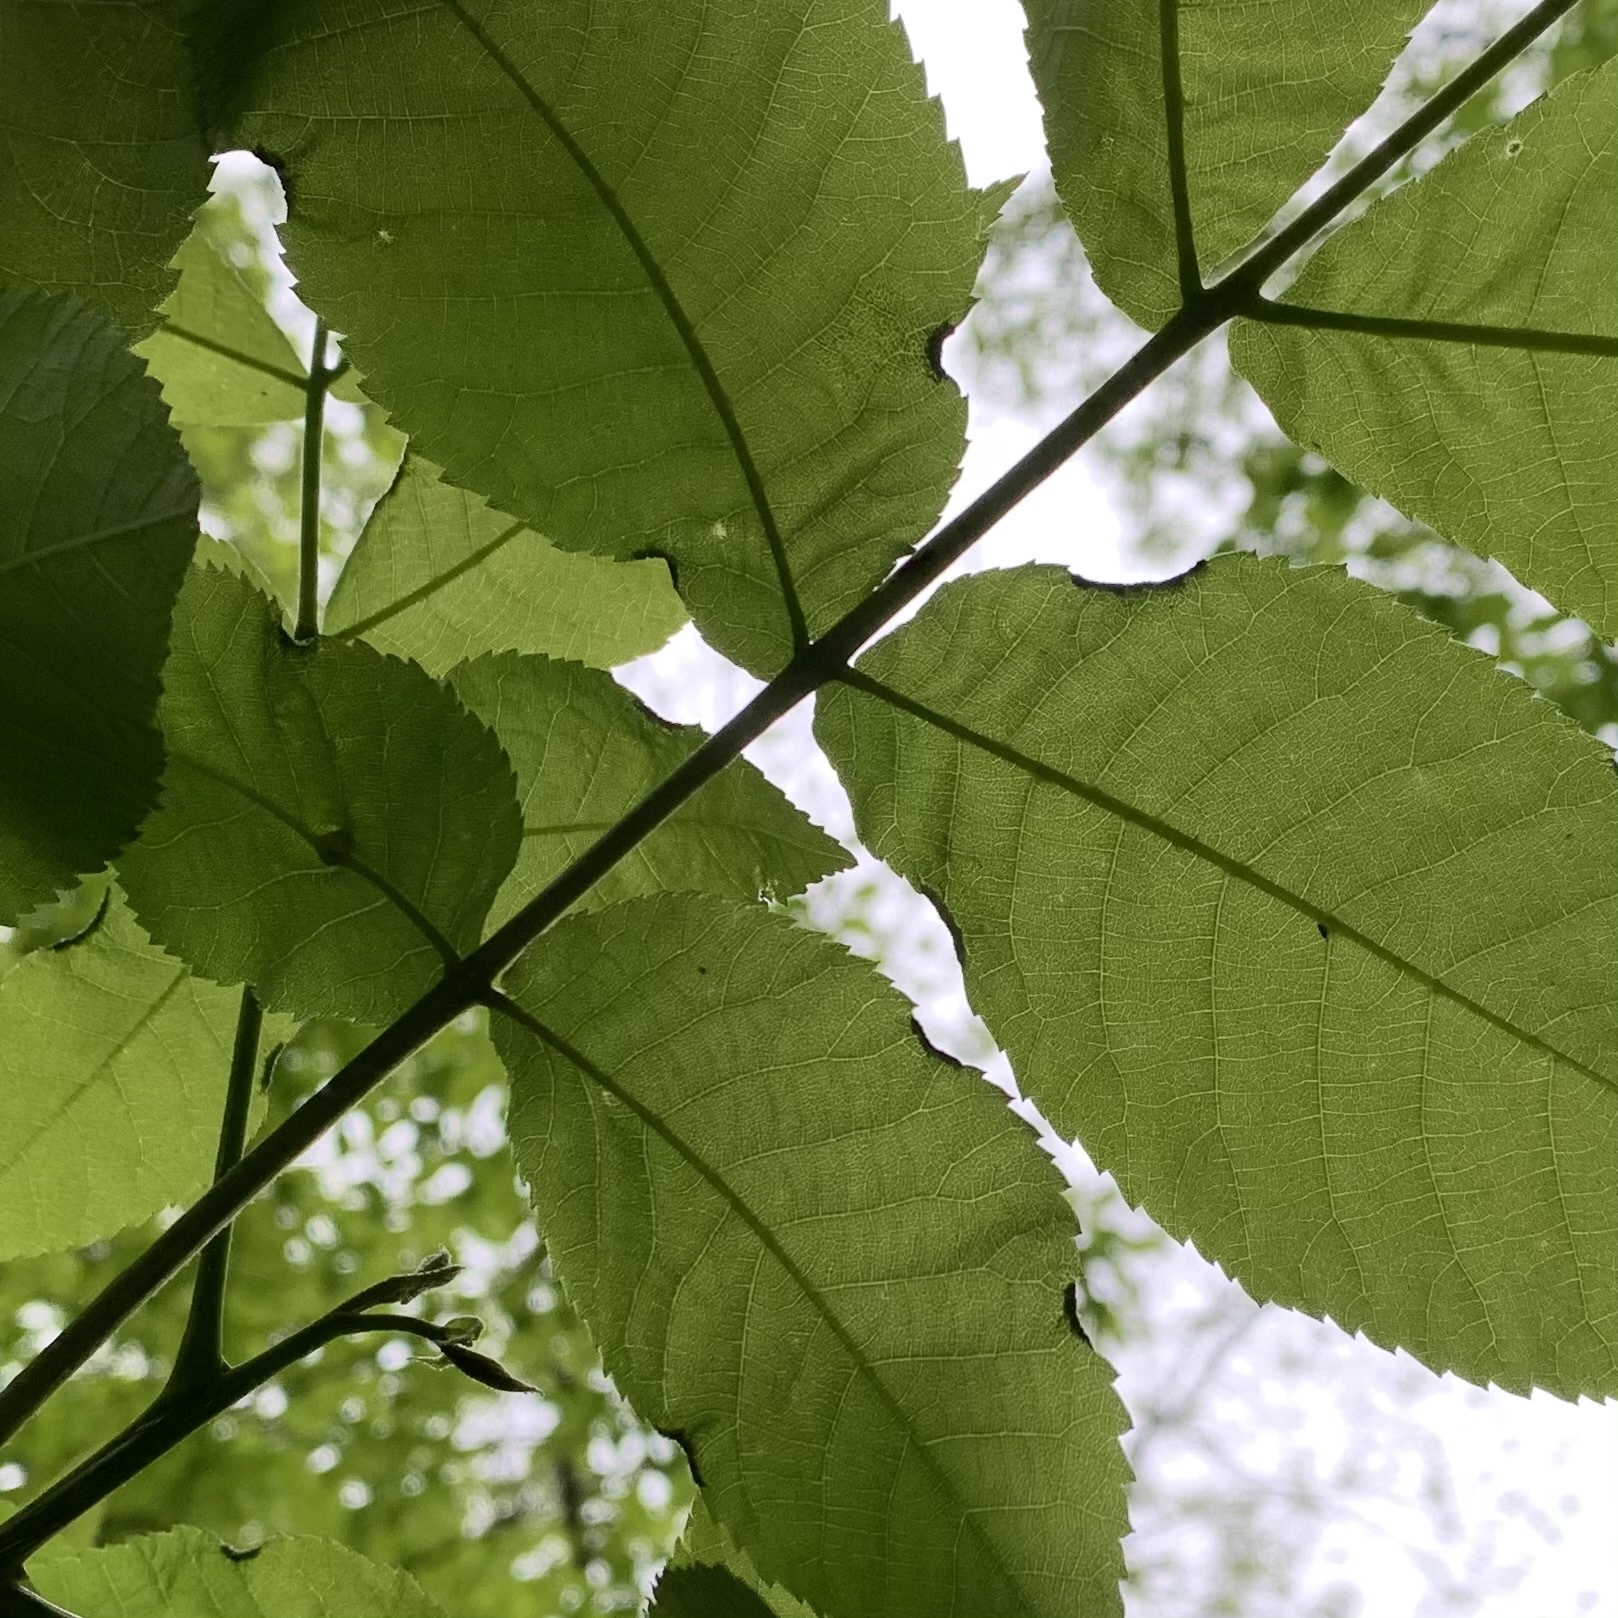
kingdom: Animalia
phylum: Arthropoda
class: Arachnida
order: Trombidiformes
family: Eriophyidae
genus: Aceria
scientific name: Aceria carlinae
